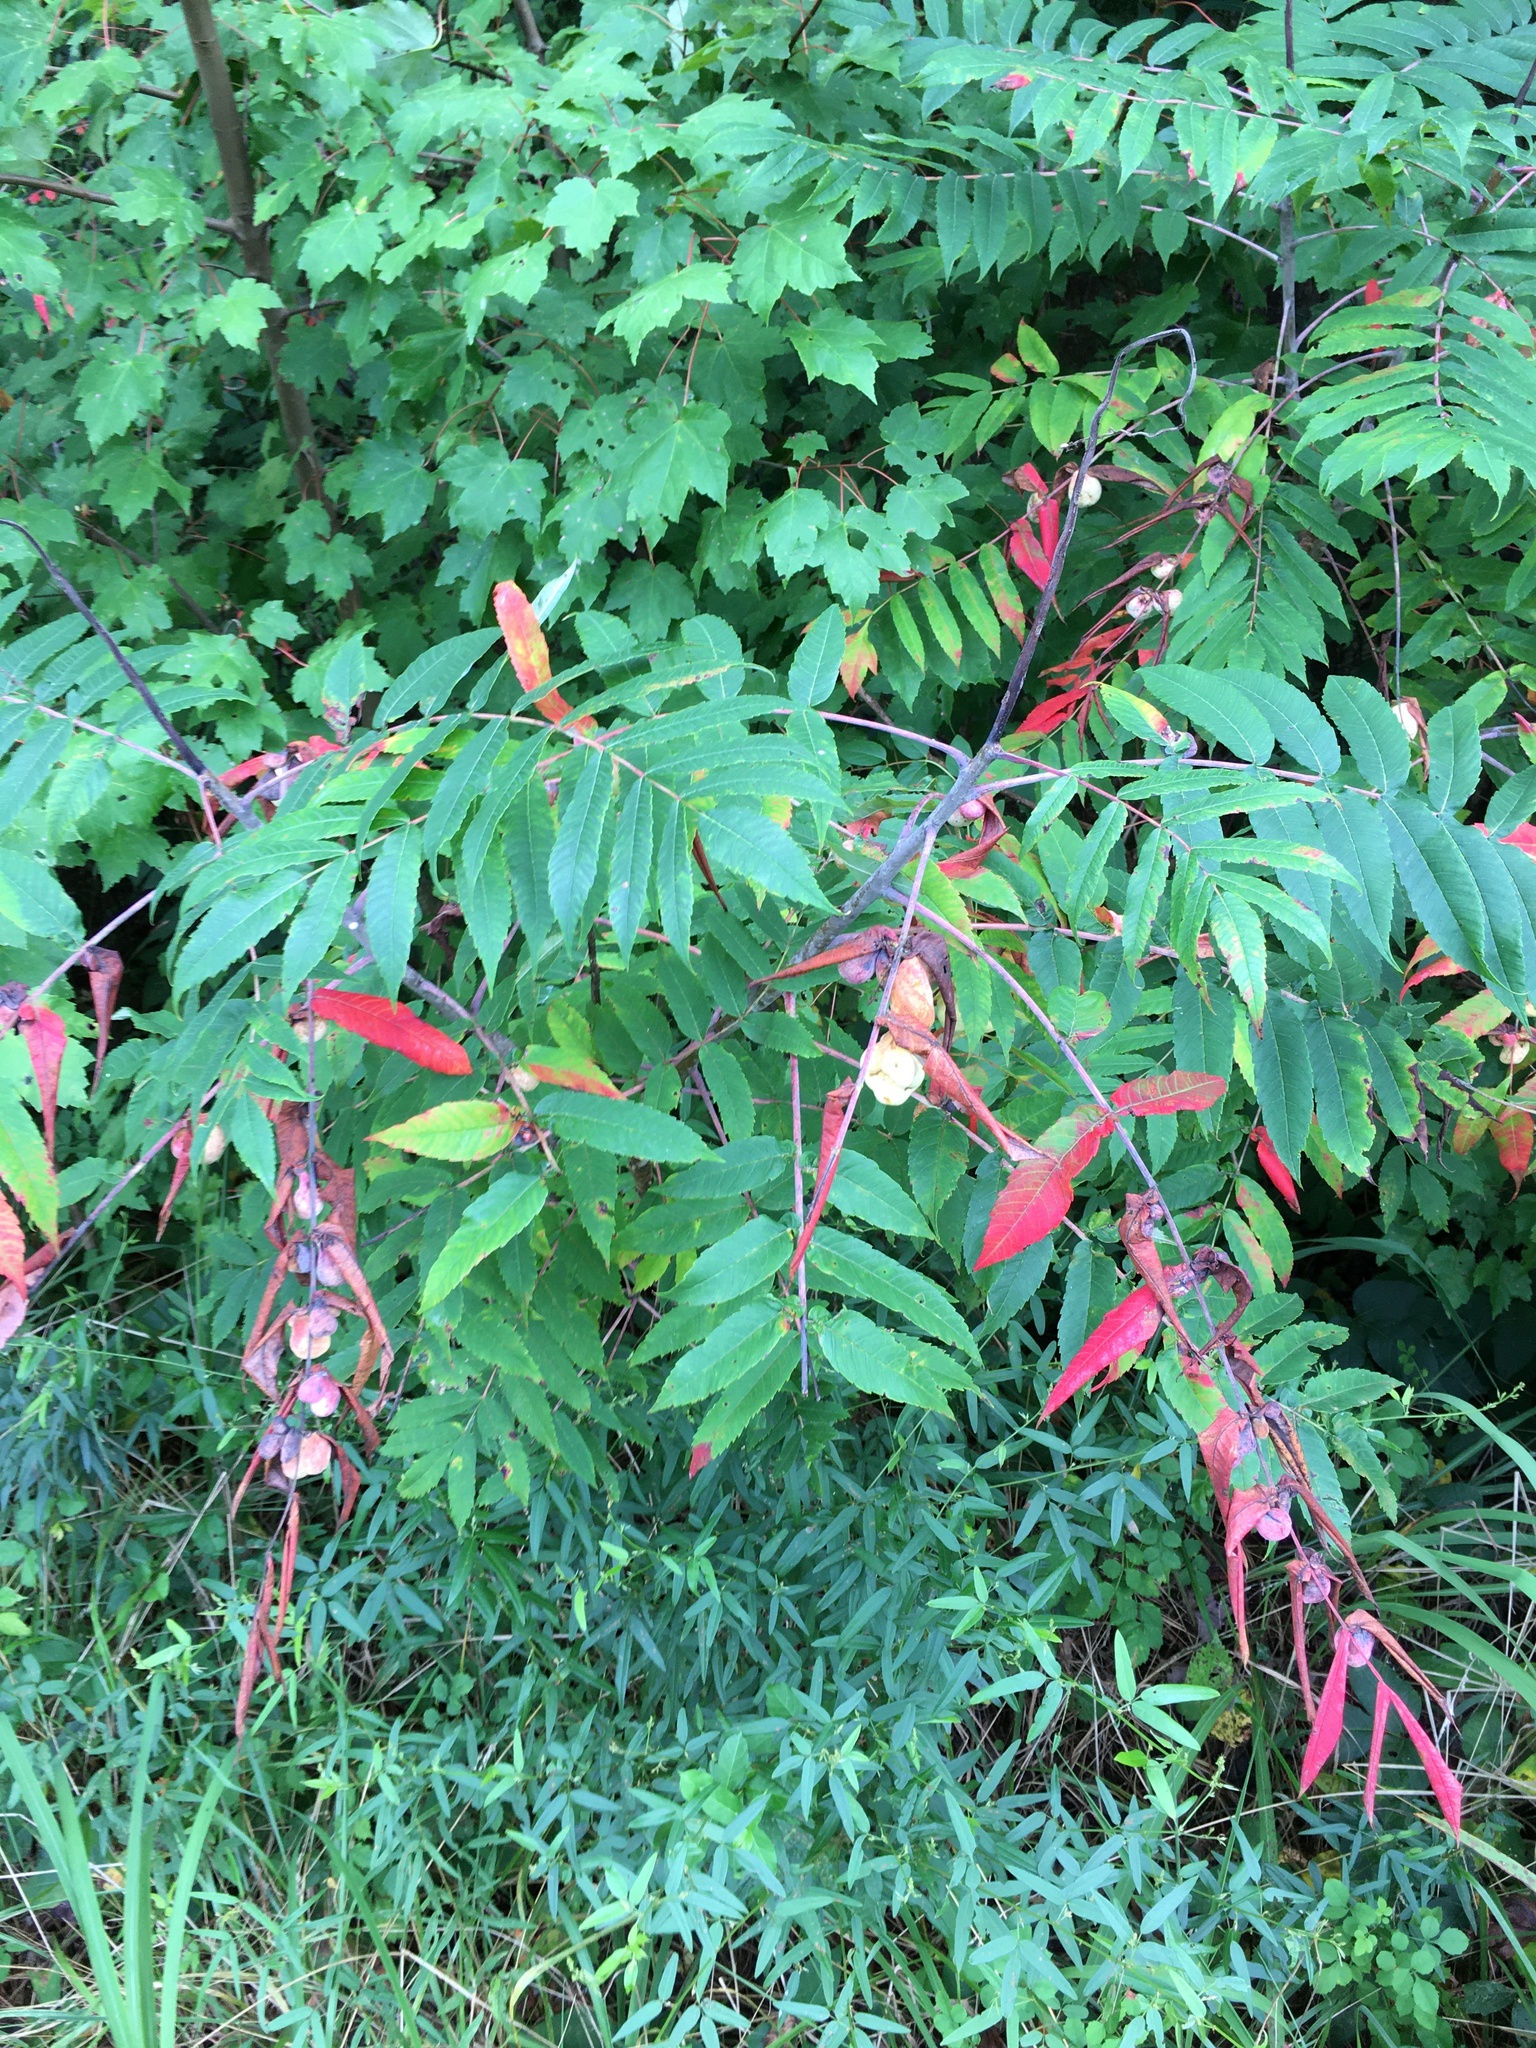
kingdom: Animalia
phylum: Arthropoda
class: Insecta
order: Hemiptera
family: Aphididae
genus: Melaphis
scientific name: Melaphis rhois
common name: Sumac gall aphid
